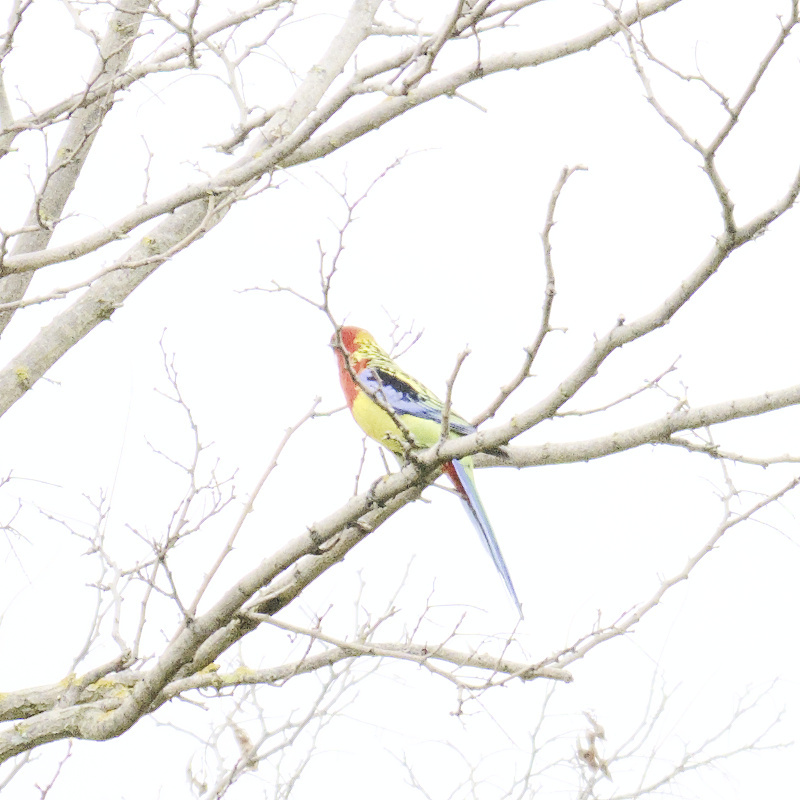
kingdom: Animalia
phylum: Chordata
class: Aves
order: Psittaciformes
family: Psittacidae
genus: Platycercus
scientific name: Platycercus eximius
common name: Eastern rosella
